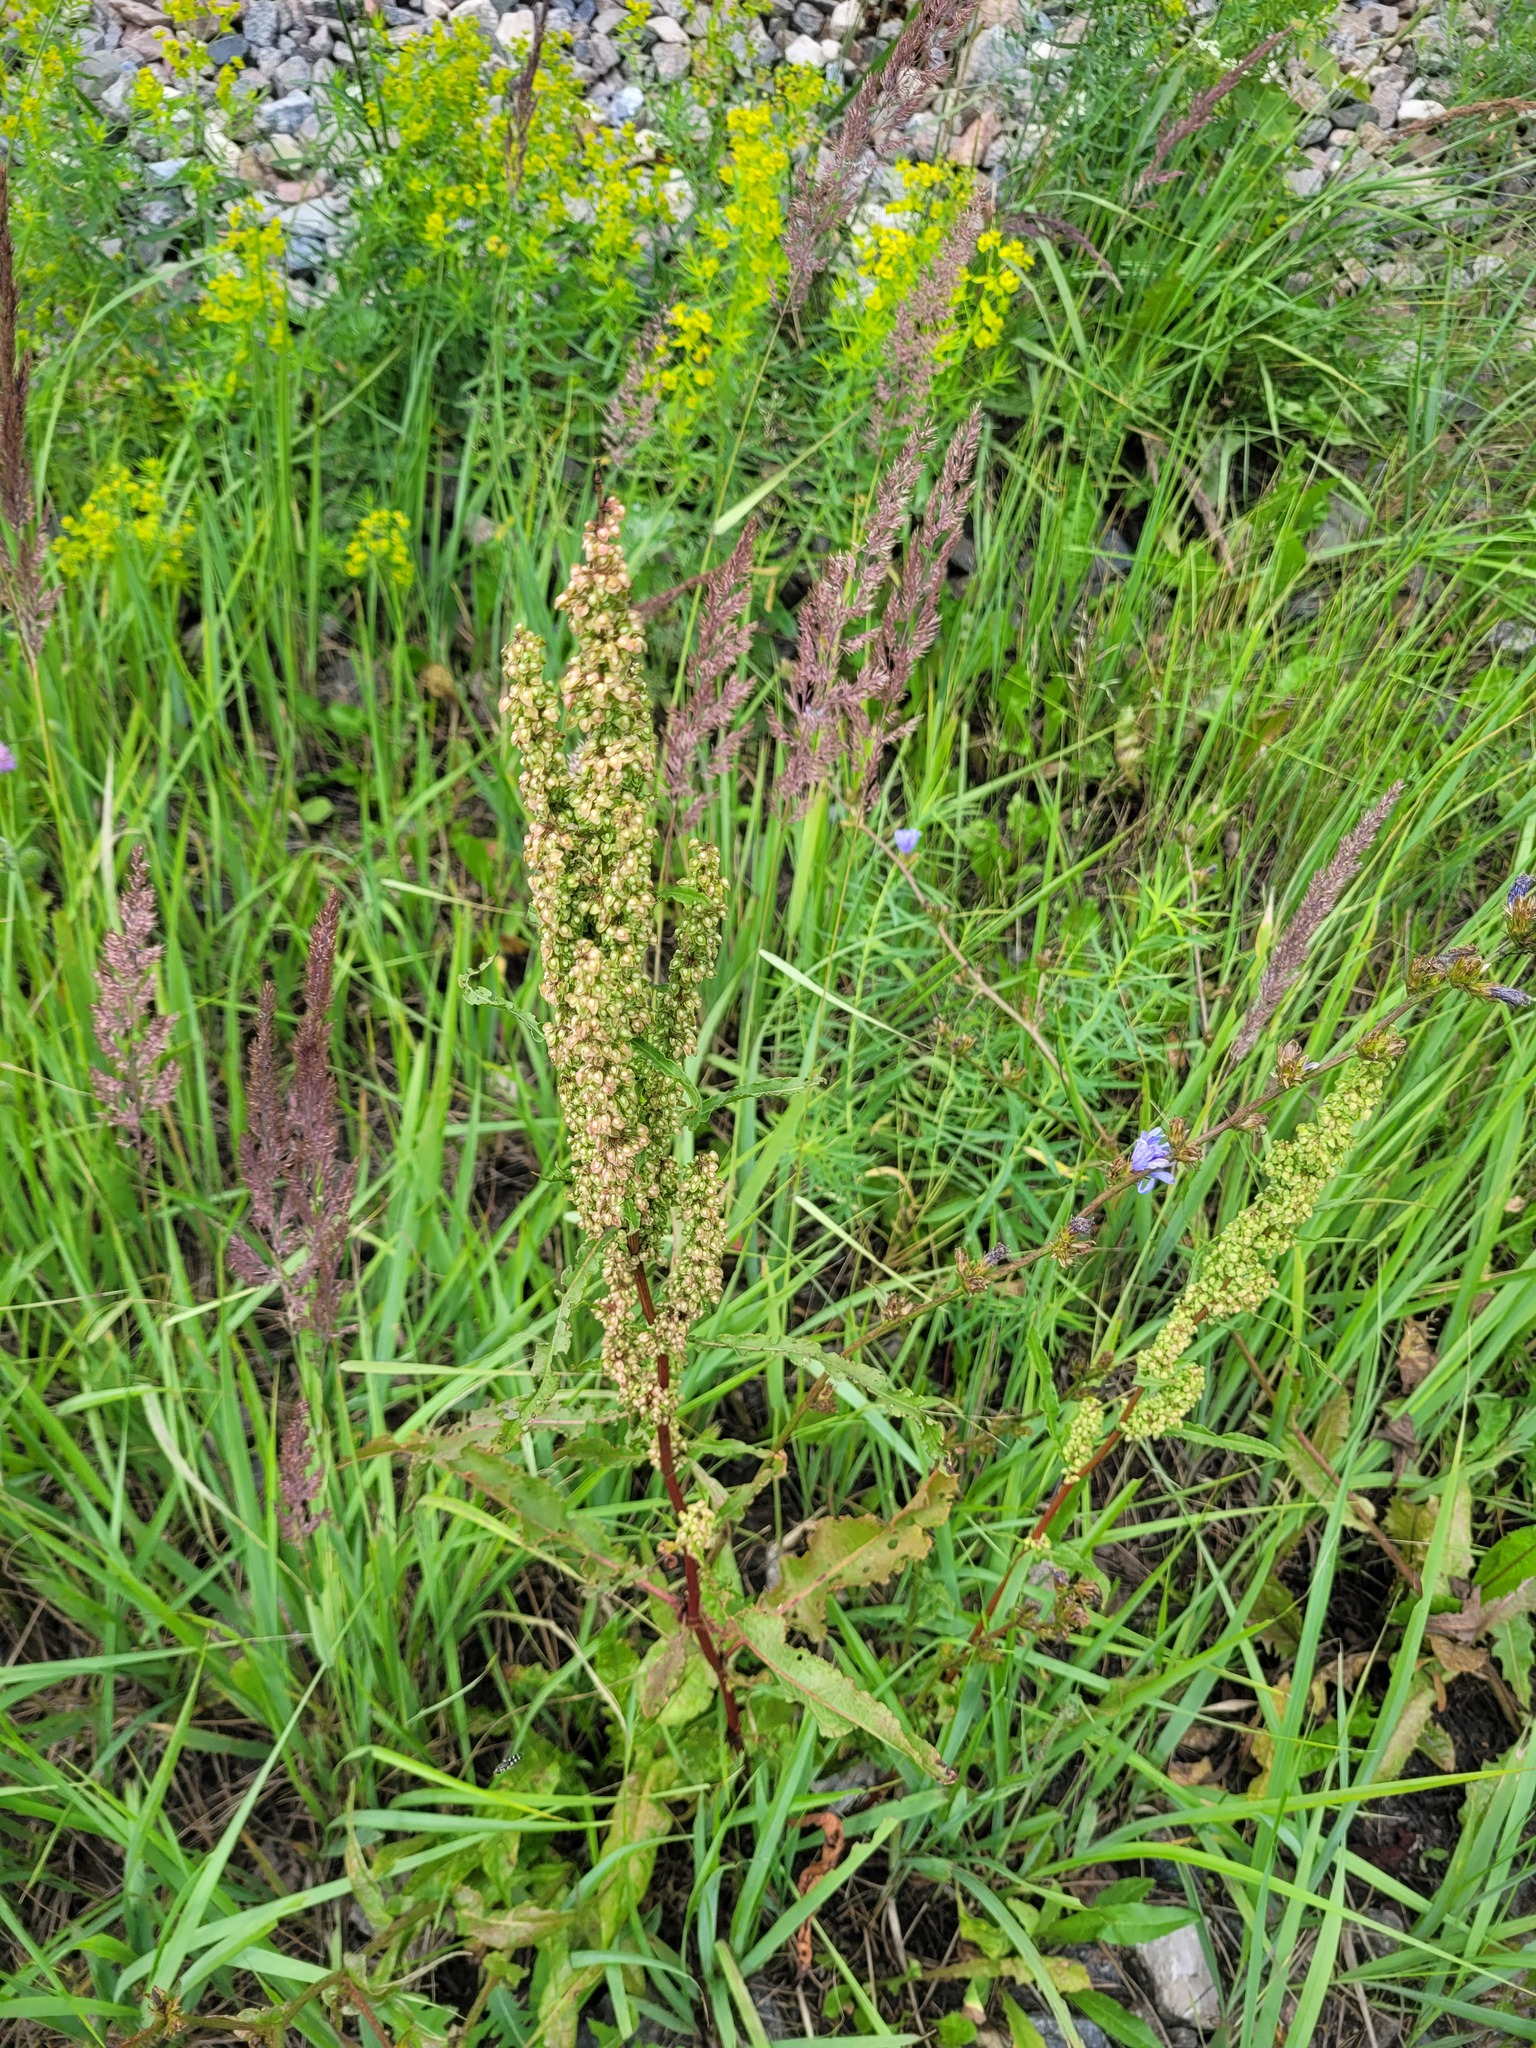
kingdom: Plantae
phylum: Tracheophyta
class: Magnoliopsida
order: Caryophyllales
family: Polygonaceae
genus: Rumex
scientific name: Rumex crispus
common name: Curled dock
